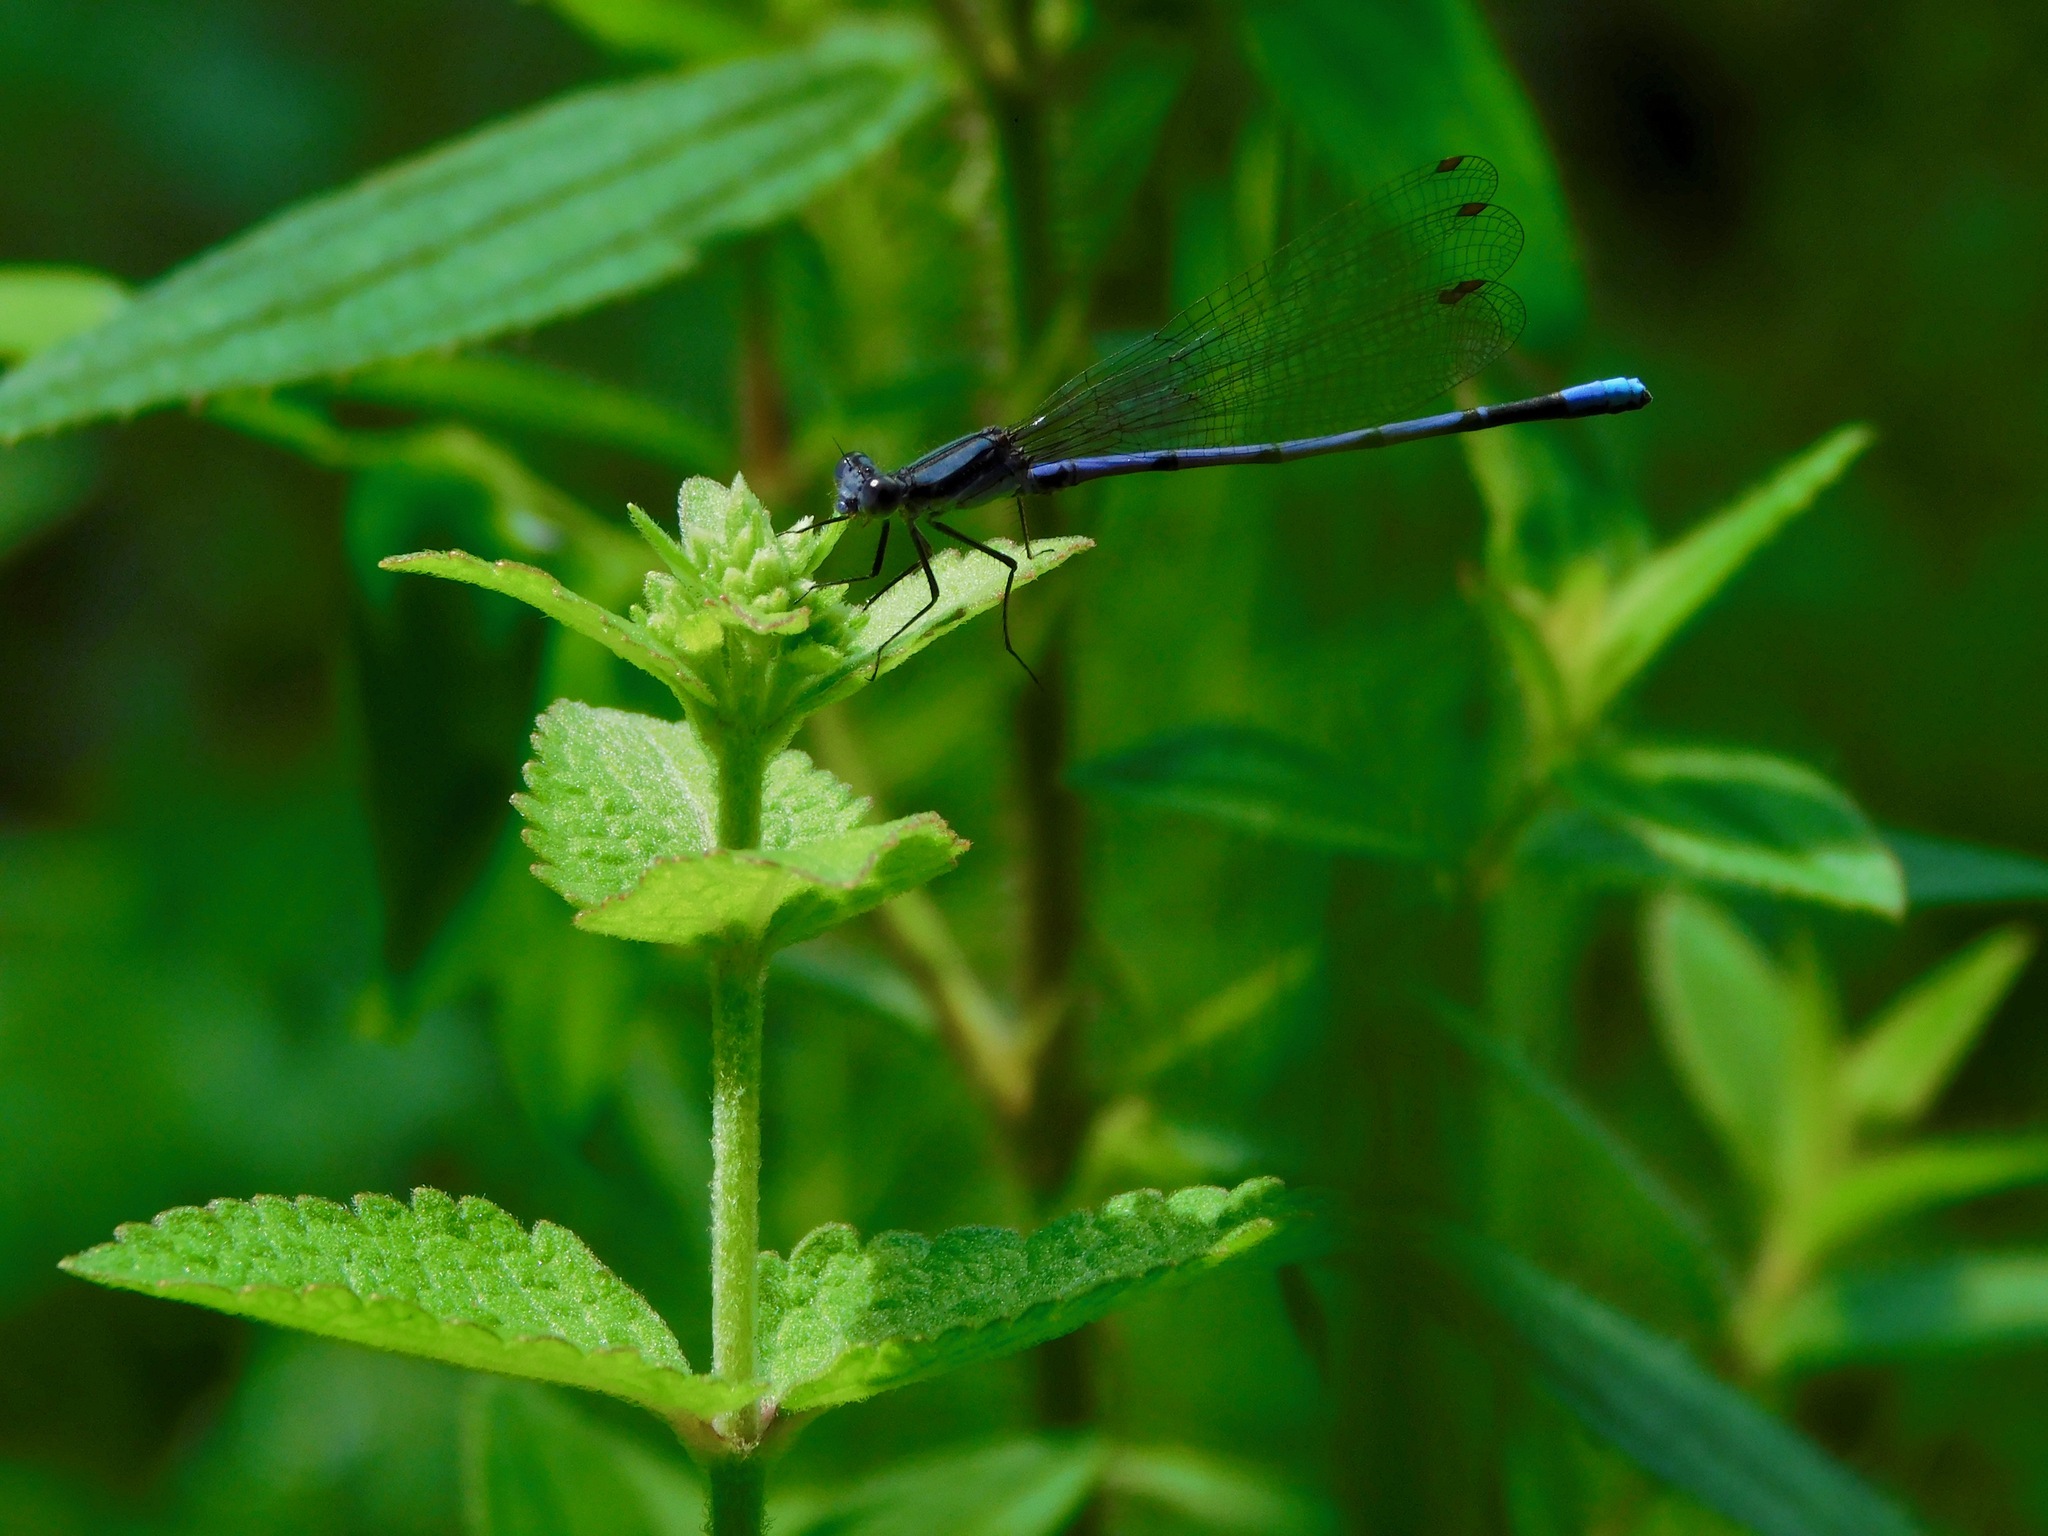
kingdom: Animalia
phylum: Arthropoda
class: Insecta
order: Odonata
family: Coenagrionidae
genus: Argia
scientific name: Argia fumipennis
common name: Variable dancer
